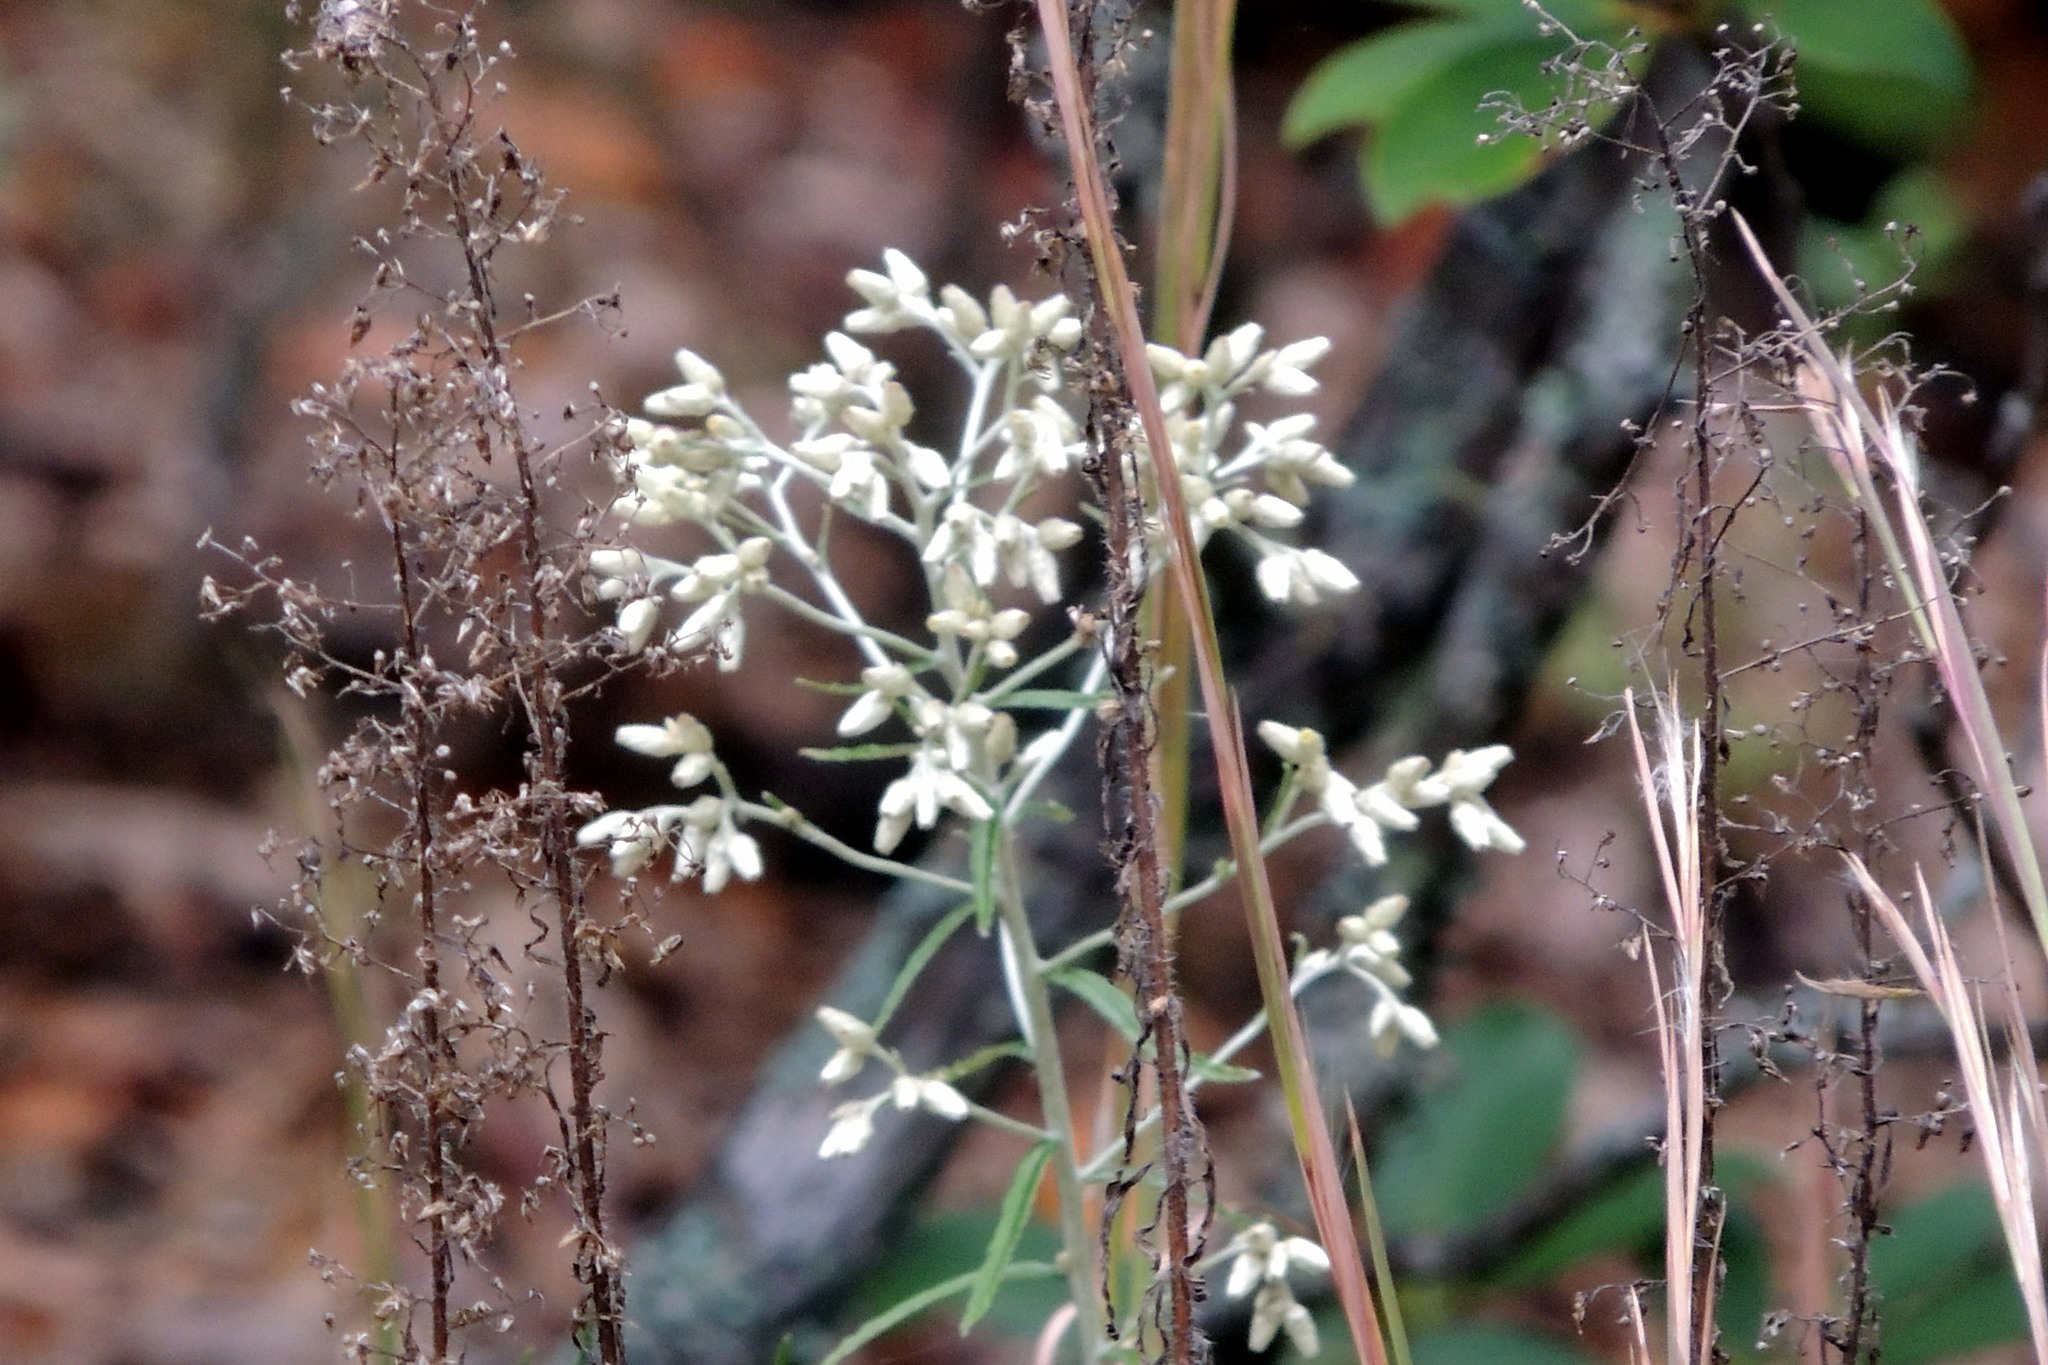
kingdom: Plantae
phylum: Tracheophyta
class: Magnoliopsida
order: Asterales
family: Asteraceae
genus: Pseudognaphalium
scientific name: Pseudognaphalium obtusifolium
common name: Eastern rabbit-tobacco
